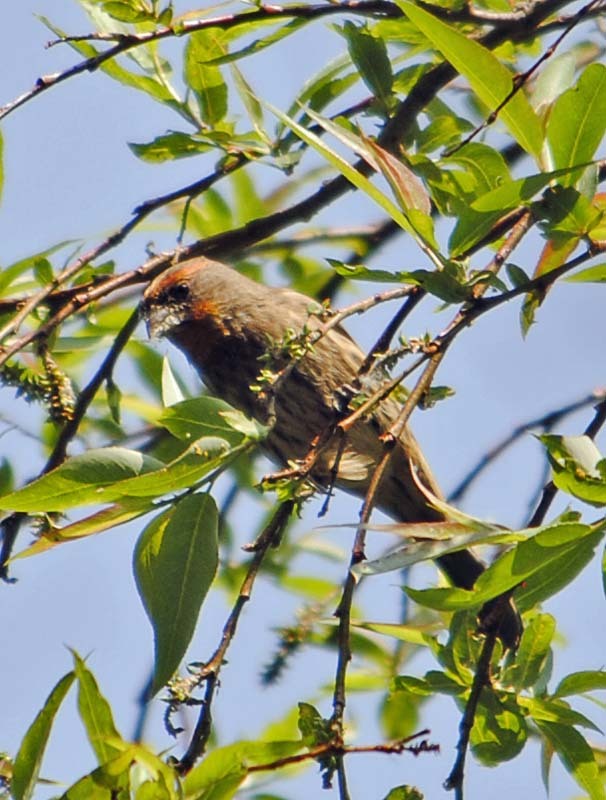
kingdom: Animalia
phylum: Chordata
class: Aves
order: Passeriformes
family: Fringillidae
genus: Haemorhous
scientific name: Haemorhous mexicanus
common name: House finch
